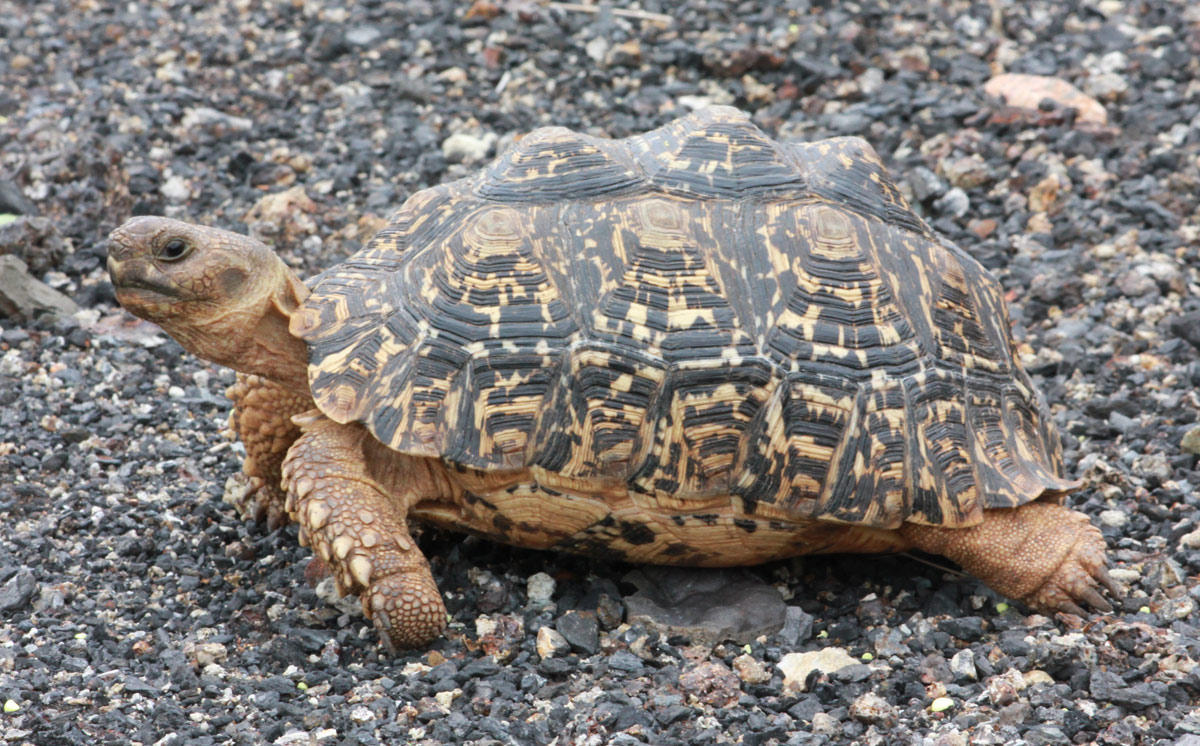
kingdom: Animalia
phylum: Chordata
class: Testudines
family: Testudinidae
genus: Stigmochelys
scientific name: Stigmochelys pardalis
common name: Leopard tortoise
